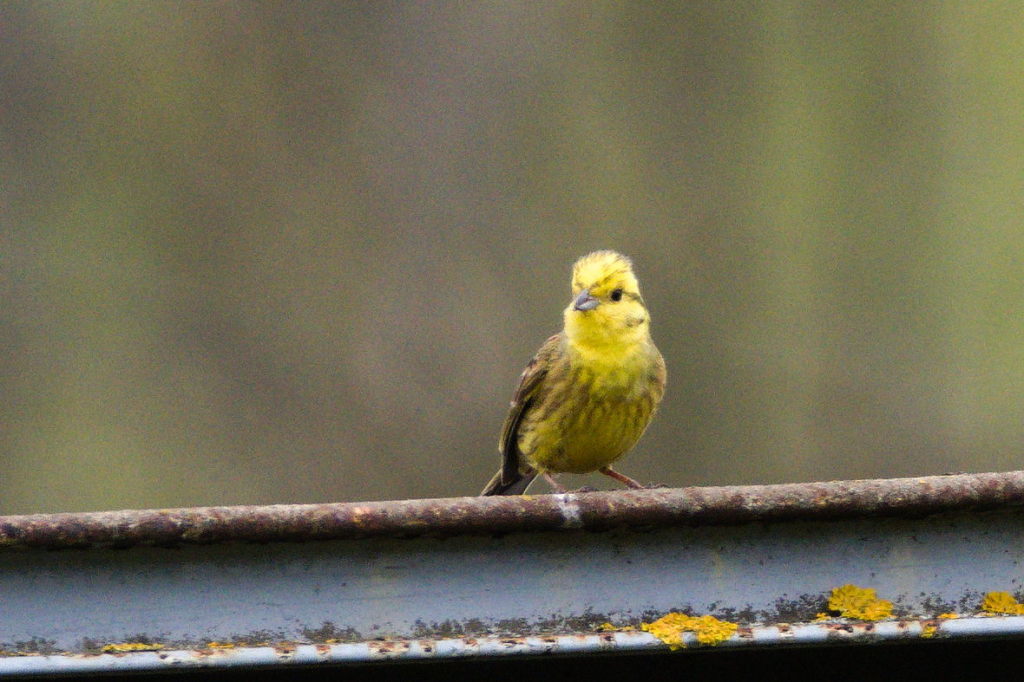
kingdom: Animalia
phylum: Chordata
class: Aves
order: Passeriformes
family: Emberizidae
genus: Emberiza
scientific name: Emberiza citrinella
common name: Yellowhammer
